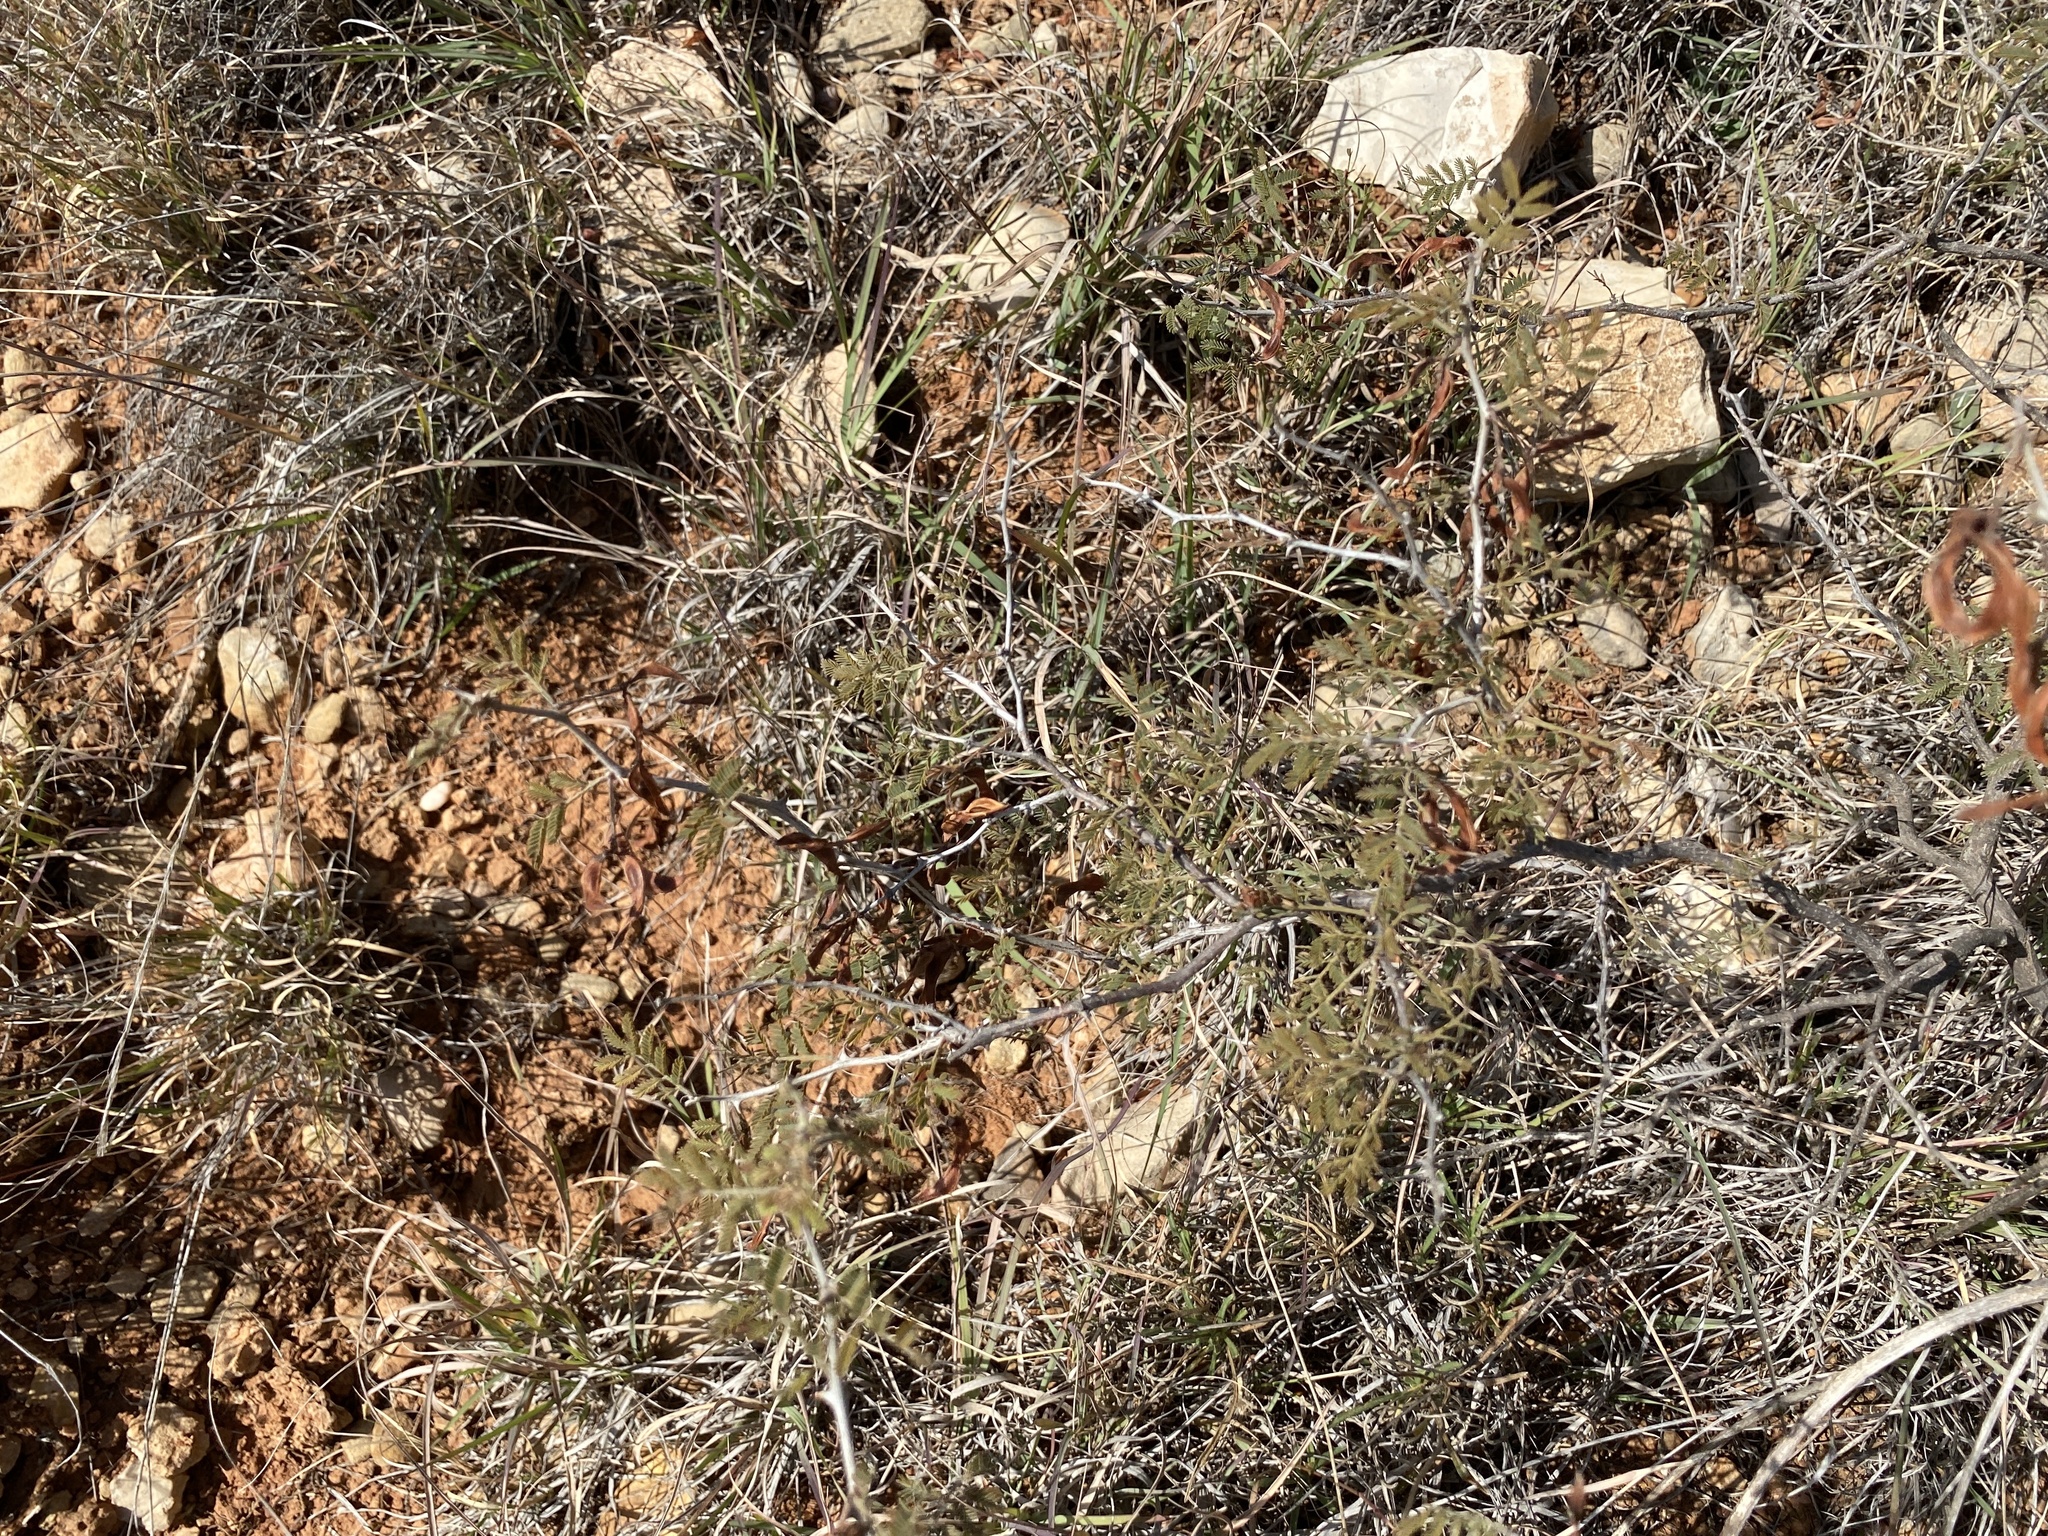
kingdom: Plantae
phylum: Tracheophyta
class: Magnoliopsida
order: Fabales
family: Fabaceae
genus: Mimosa
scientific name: Mimosa aculeaticarpa
